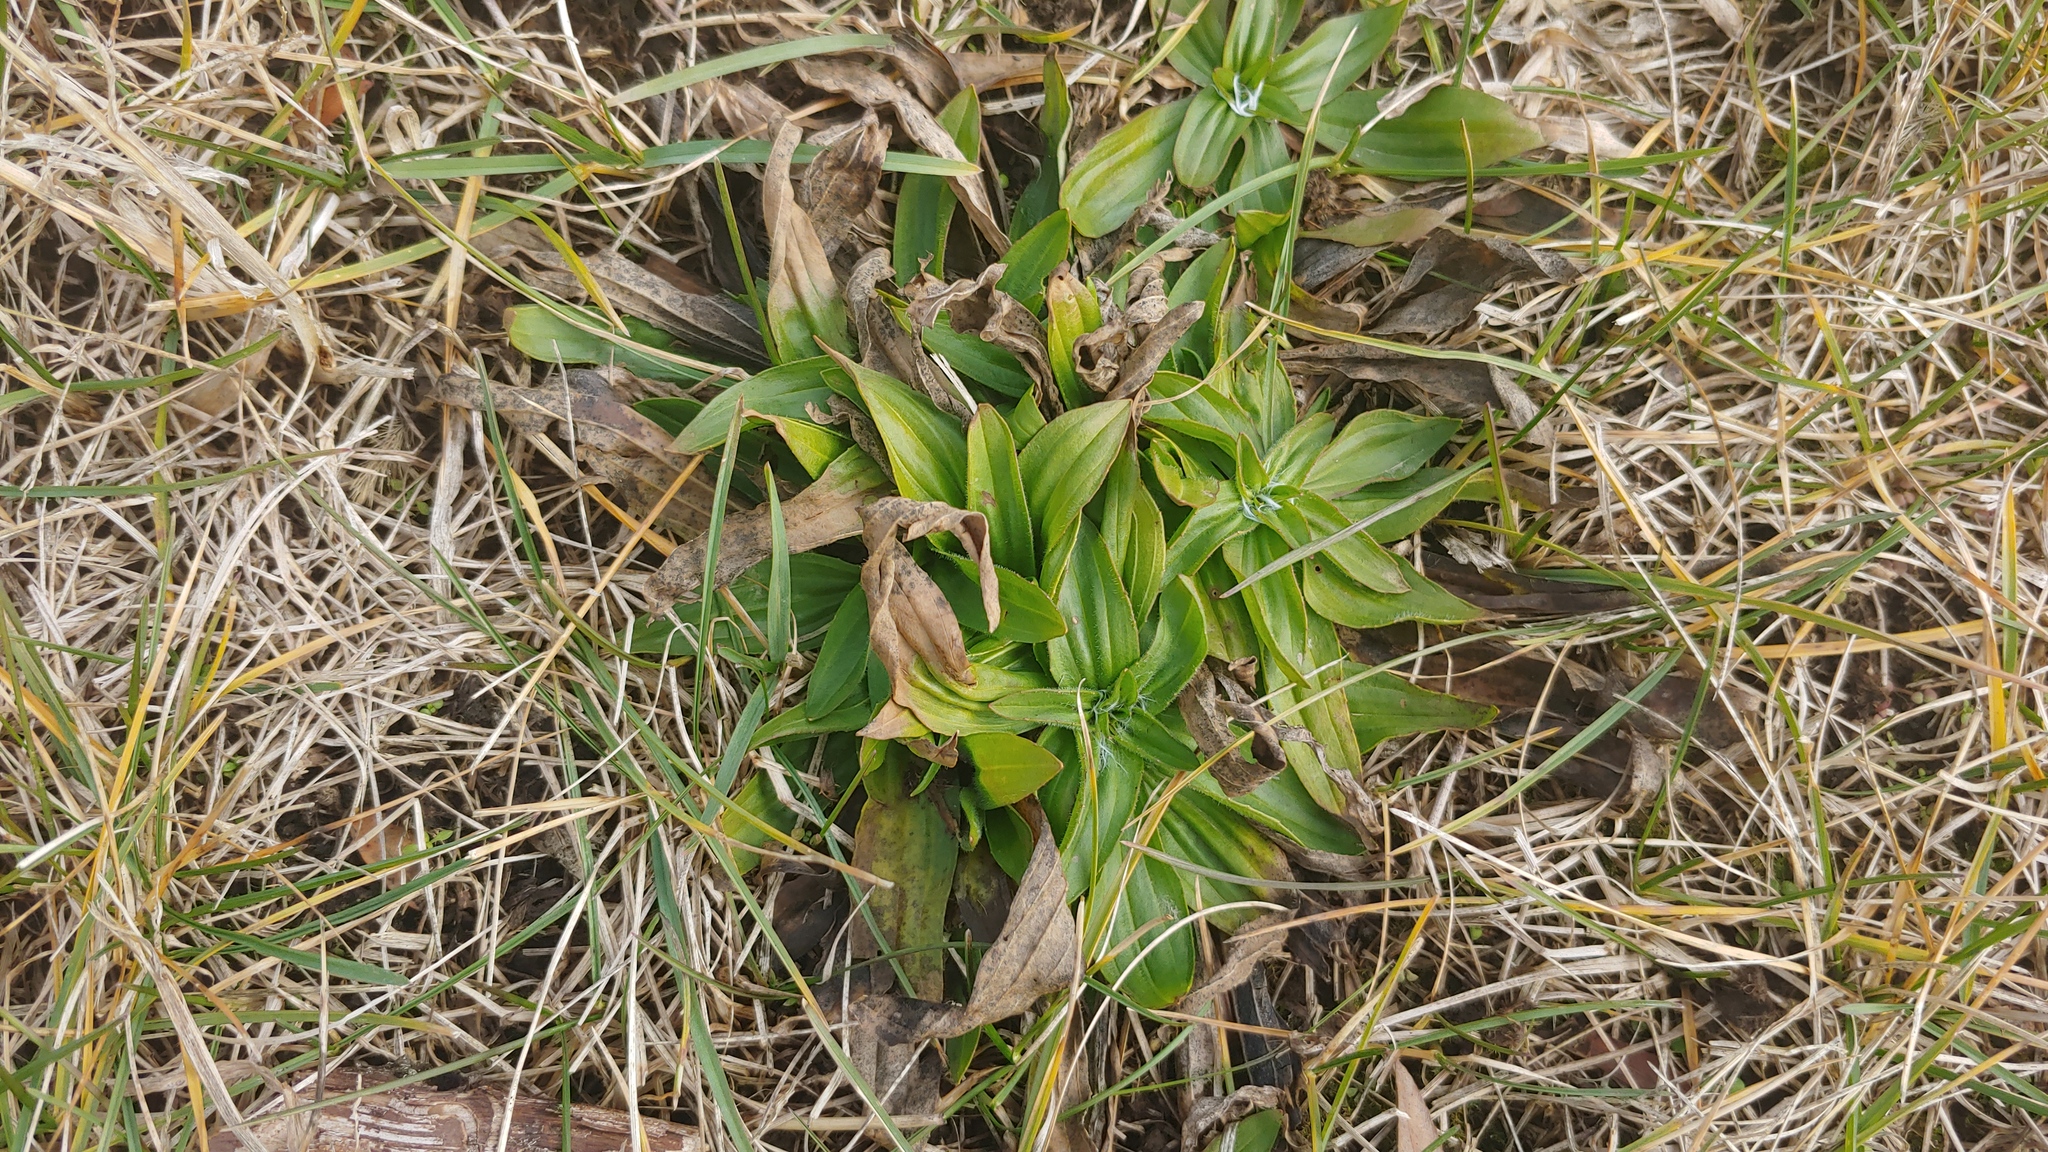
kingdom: Plantae
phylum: Tracheophyta
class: Magnoliopsida
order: Lamiales
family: Plantaginaceae
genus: Plantago
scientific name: Plantago lanceolata
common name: Ribwort plantain
